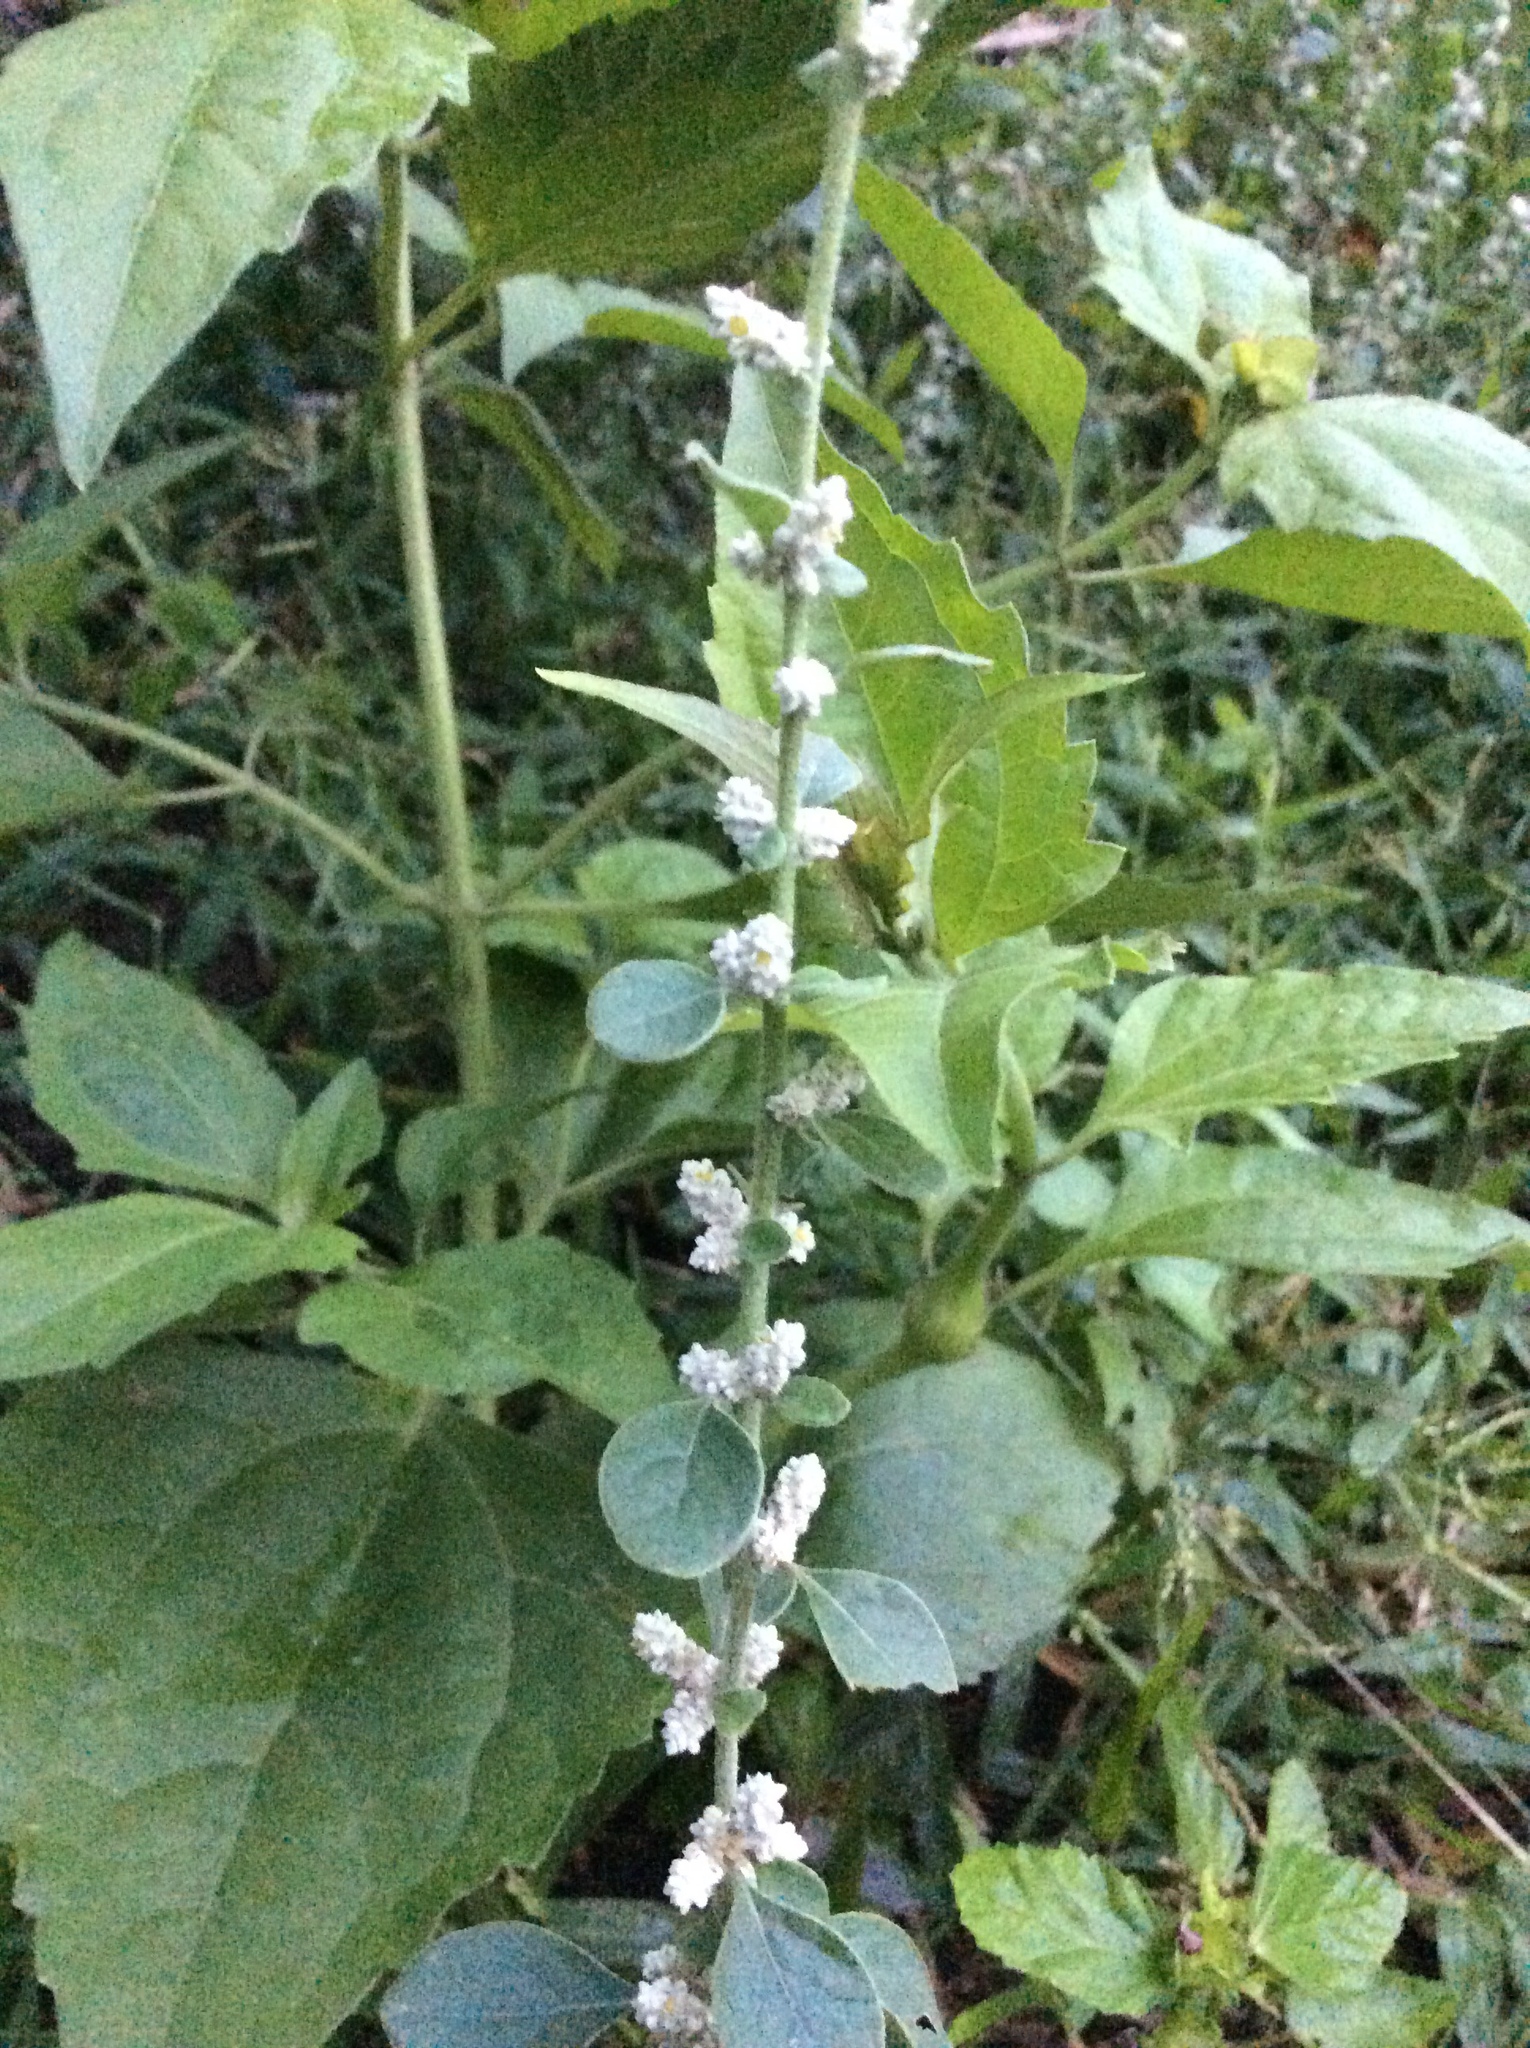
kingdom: Plantae
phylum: Tracheophyta
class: Magnoliopsida
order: Caryophyllales
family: Amaranthaceae
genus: Ouret
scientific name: Ouret lanata
